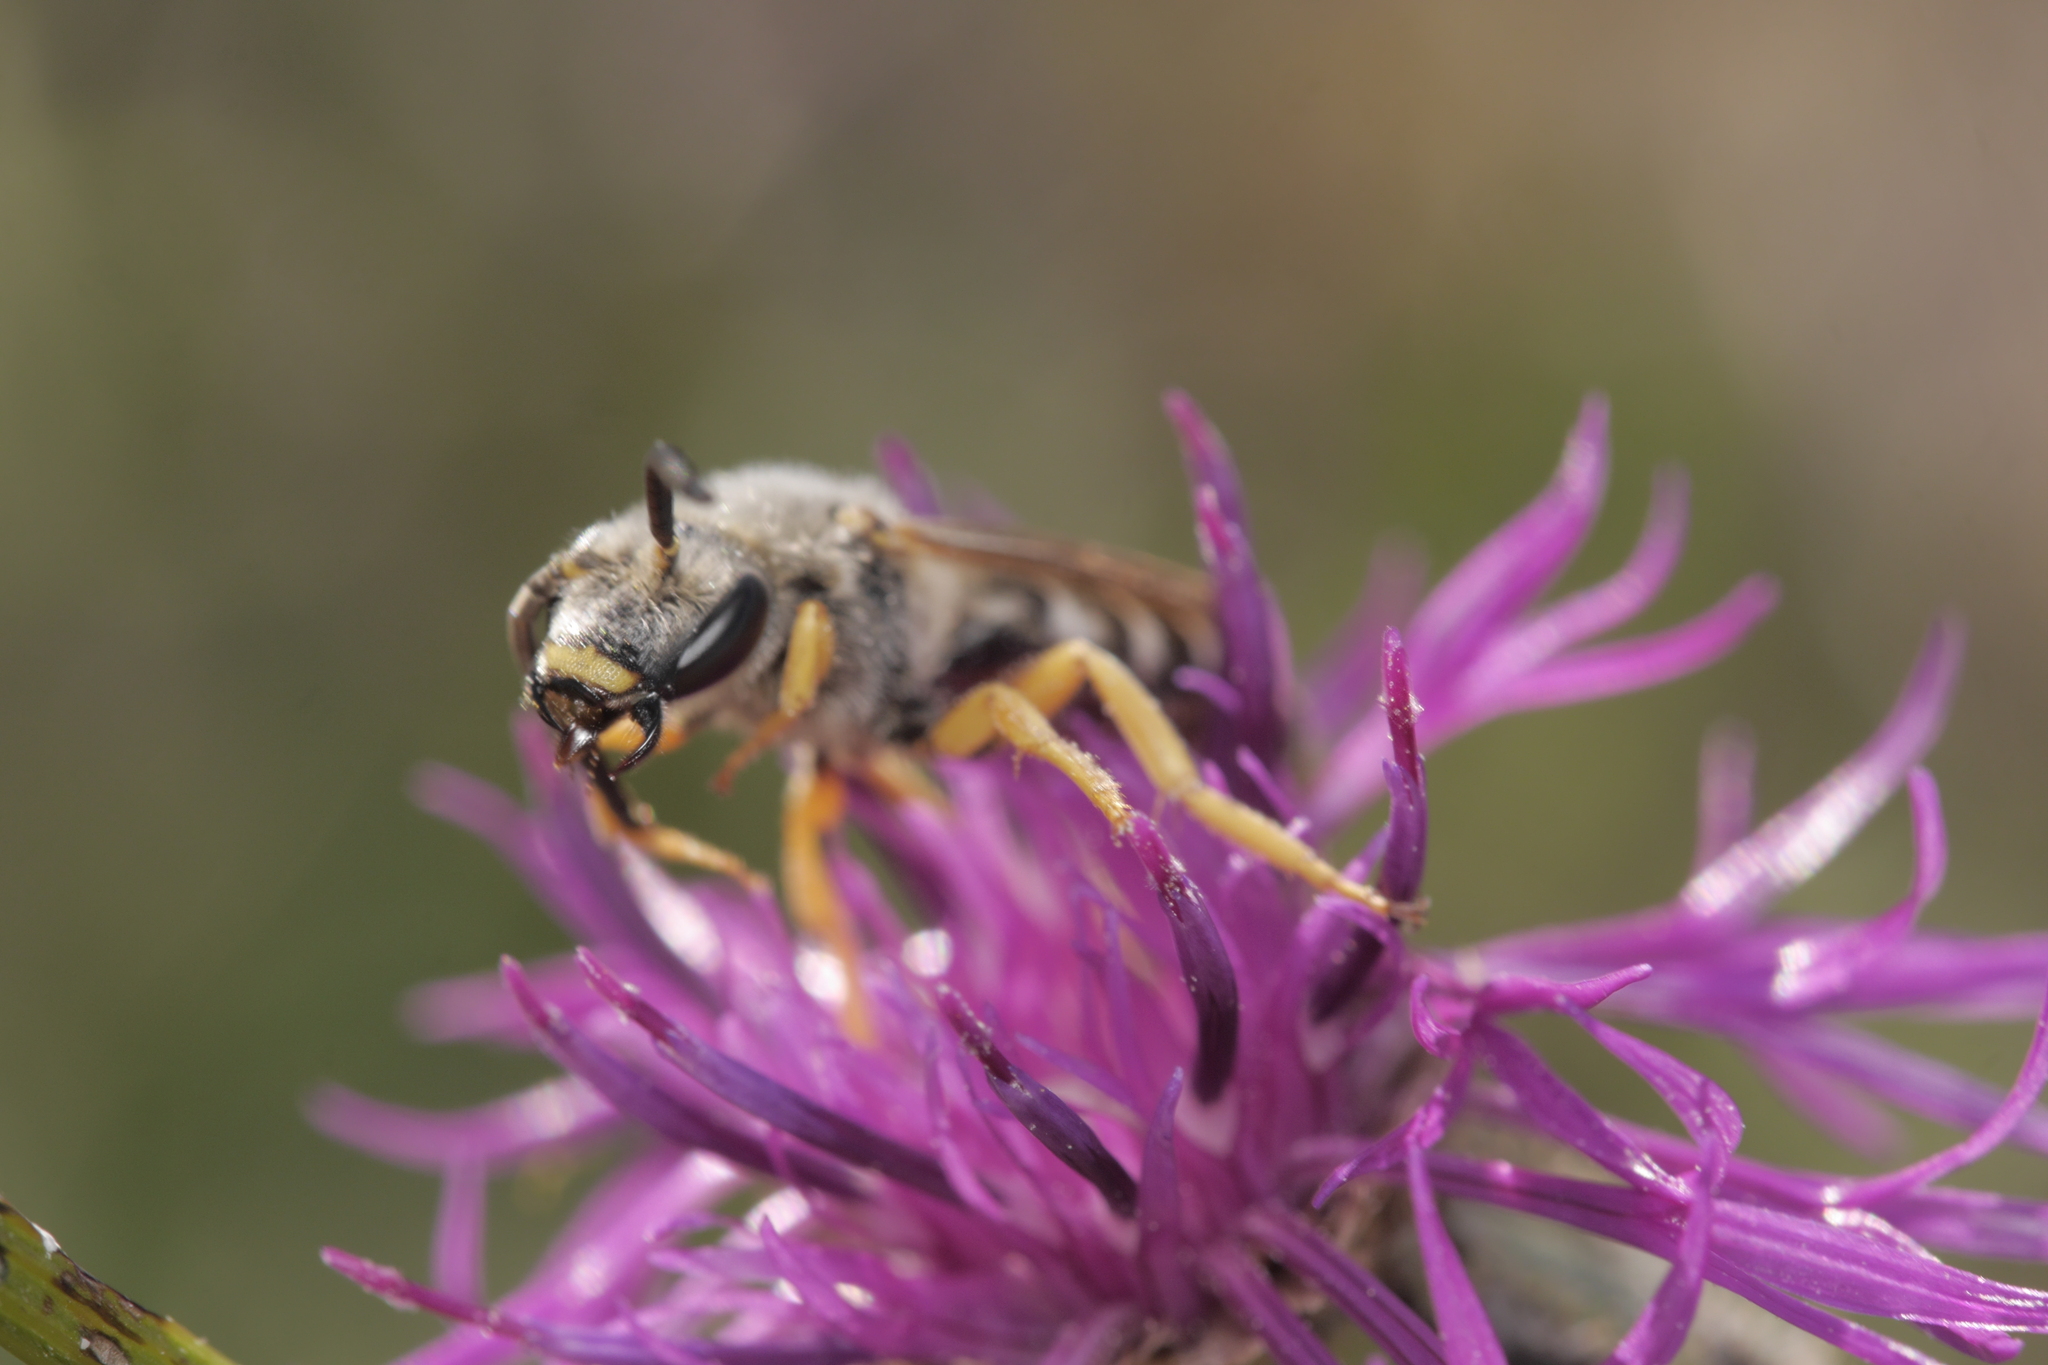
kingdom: Animalia
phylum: Arthropoda
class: Insecta
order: Hymenoptera
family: Halictidae
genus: Halictus
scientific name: Halictus scabiosae
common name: Great banded furrow bee
